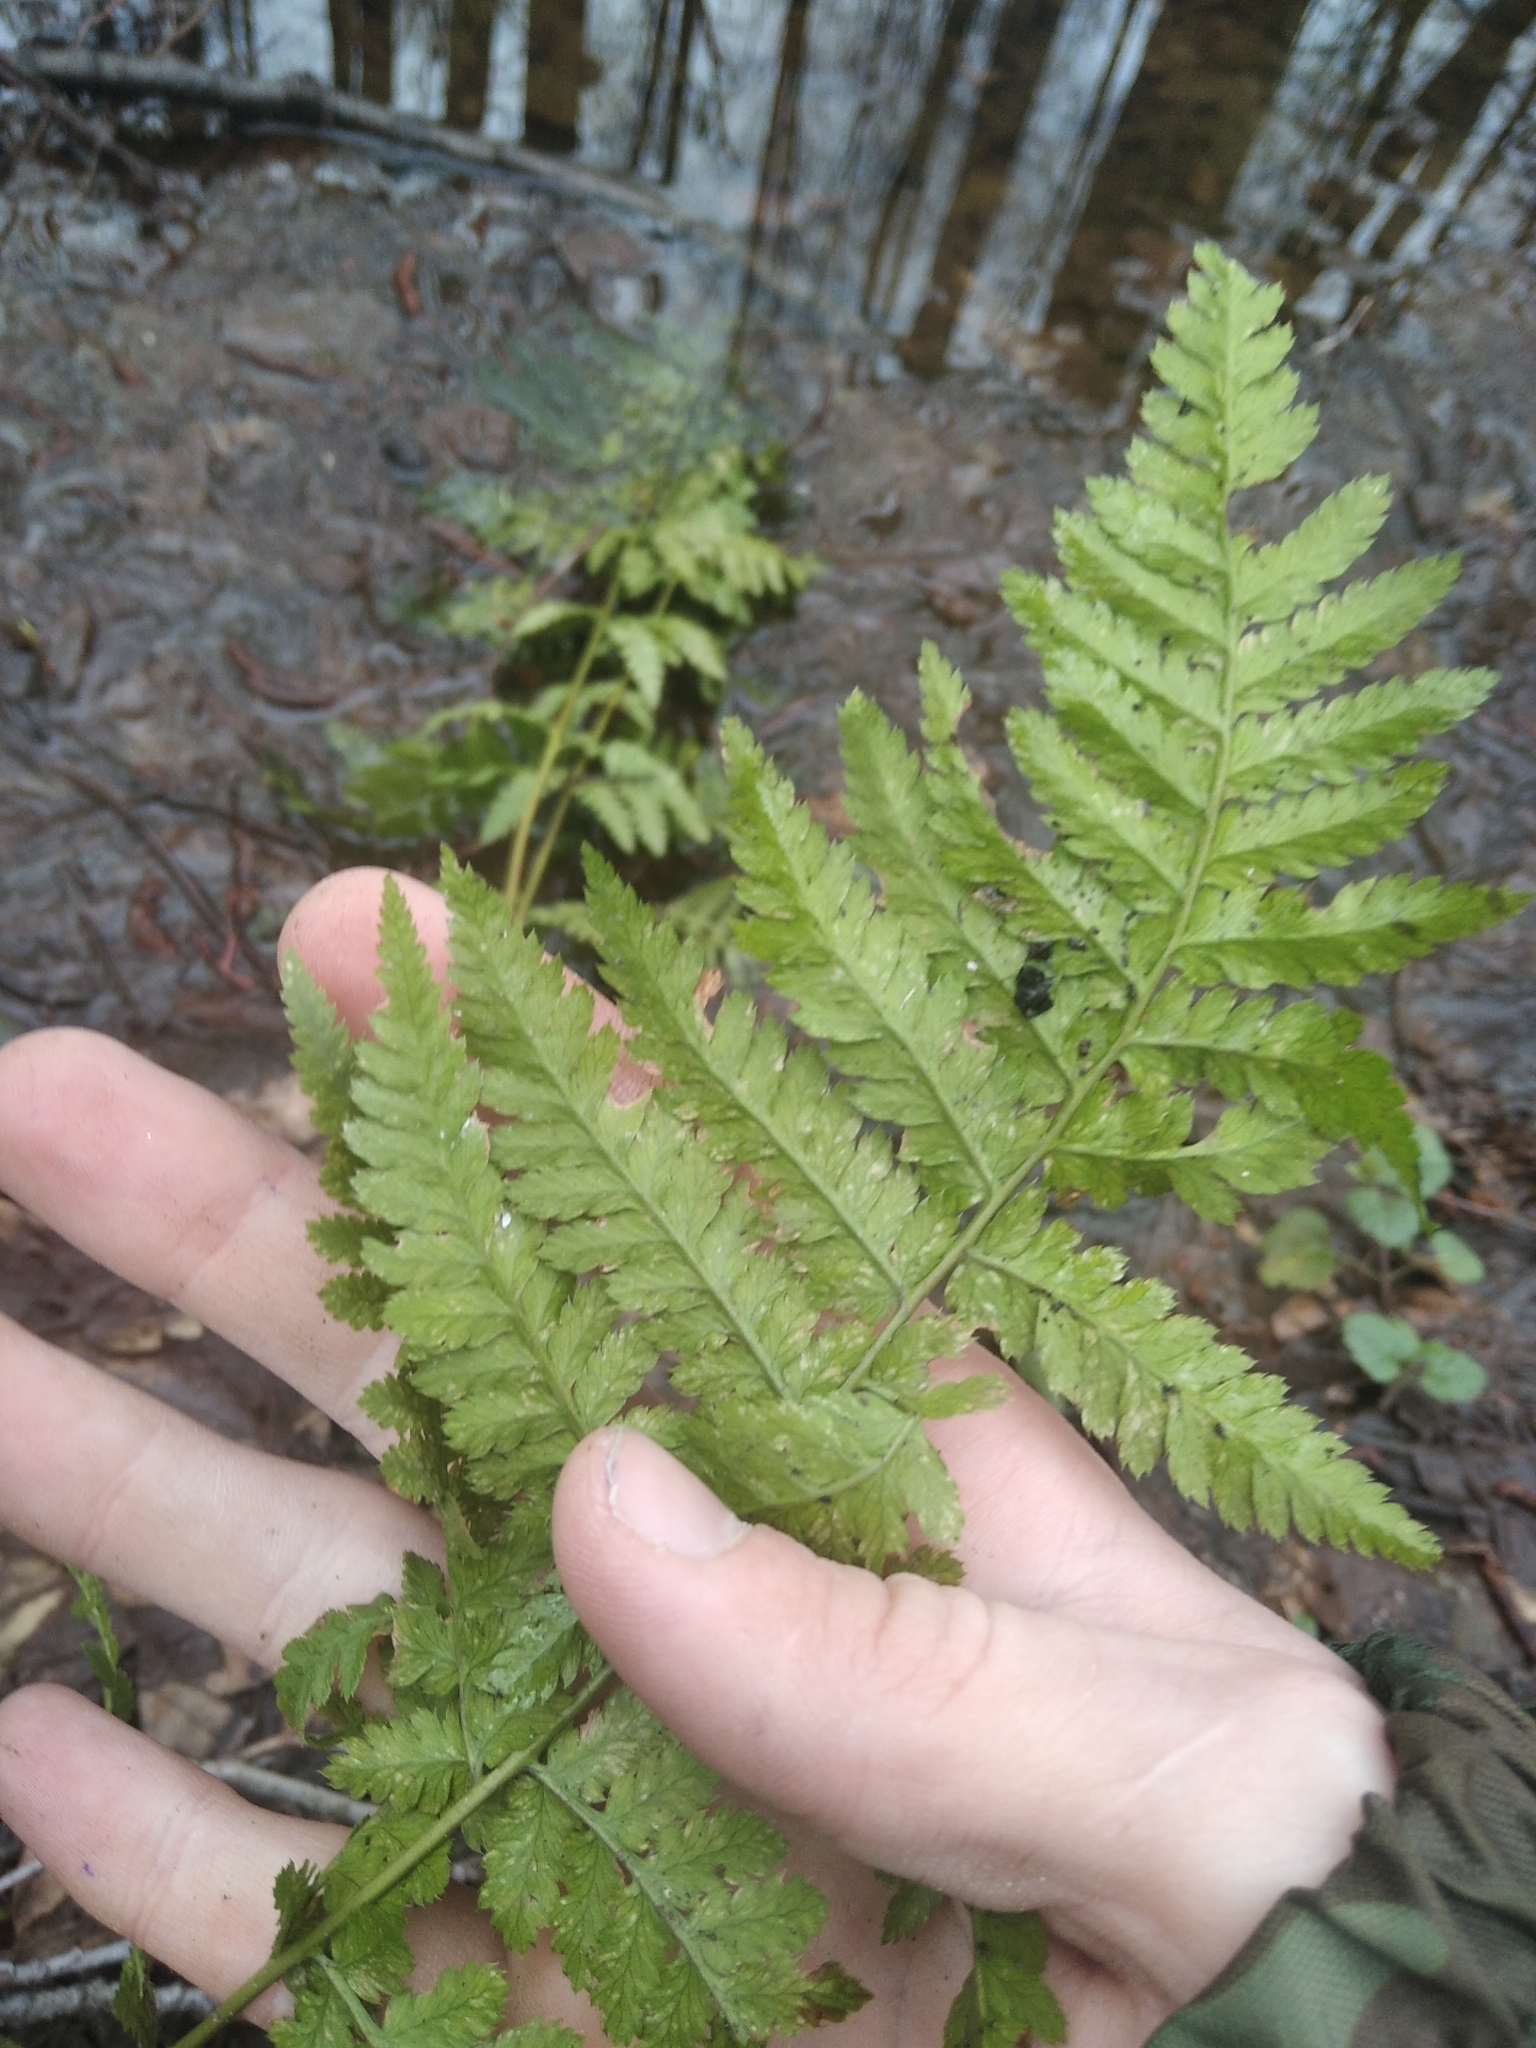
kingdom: Plantae
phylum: Tracheophyta
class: Polypodiopsida
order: Polypodiales
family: Dryopteridaceae
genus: Dryopteris
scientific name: Dryopteris carthusiana
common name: Narrow buckler-fern
